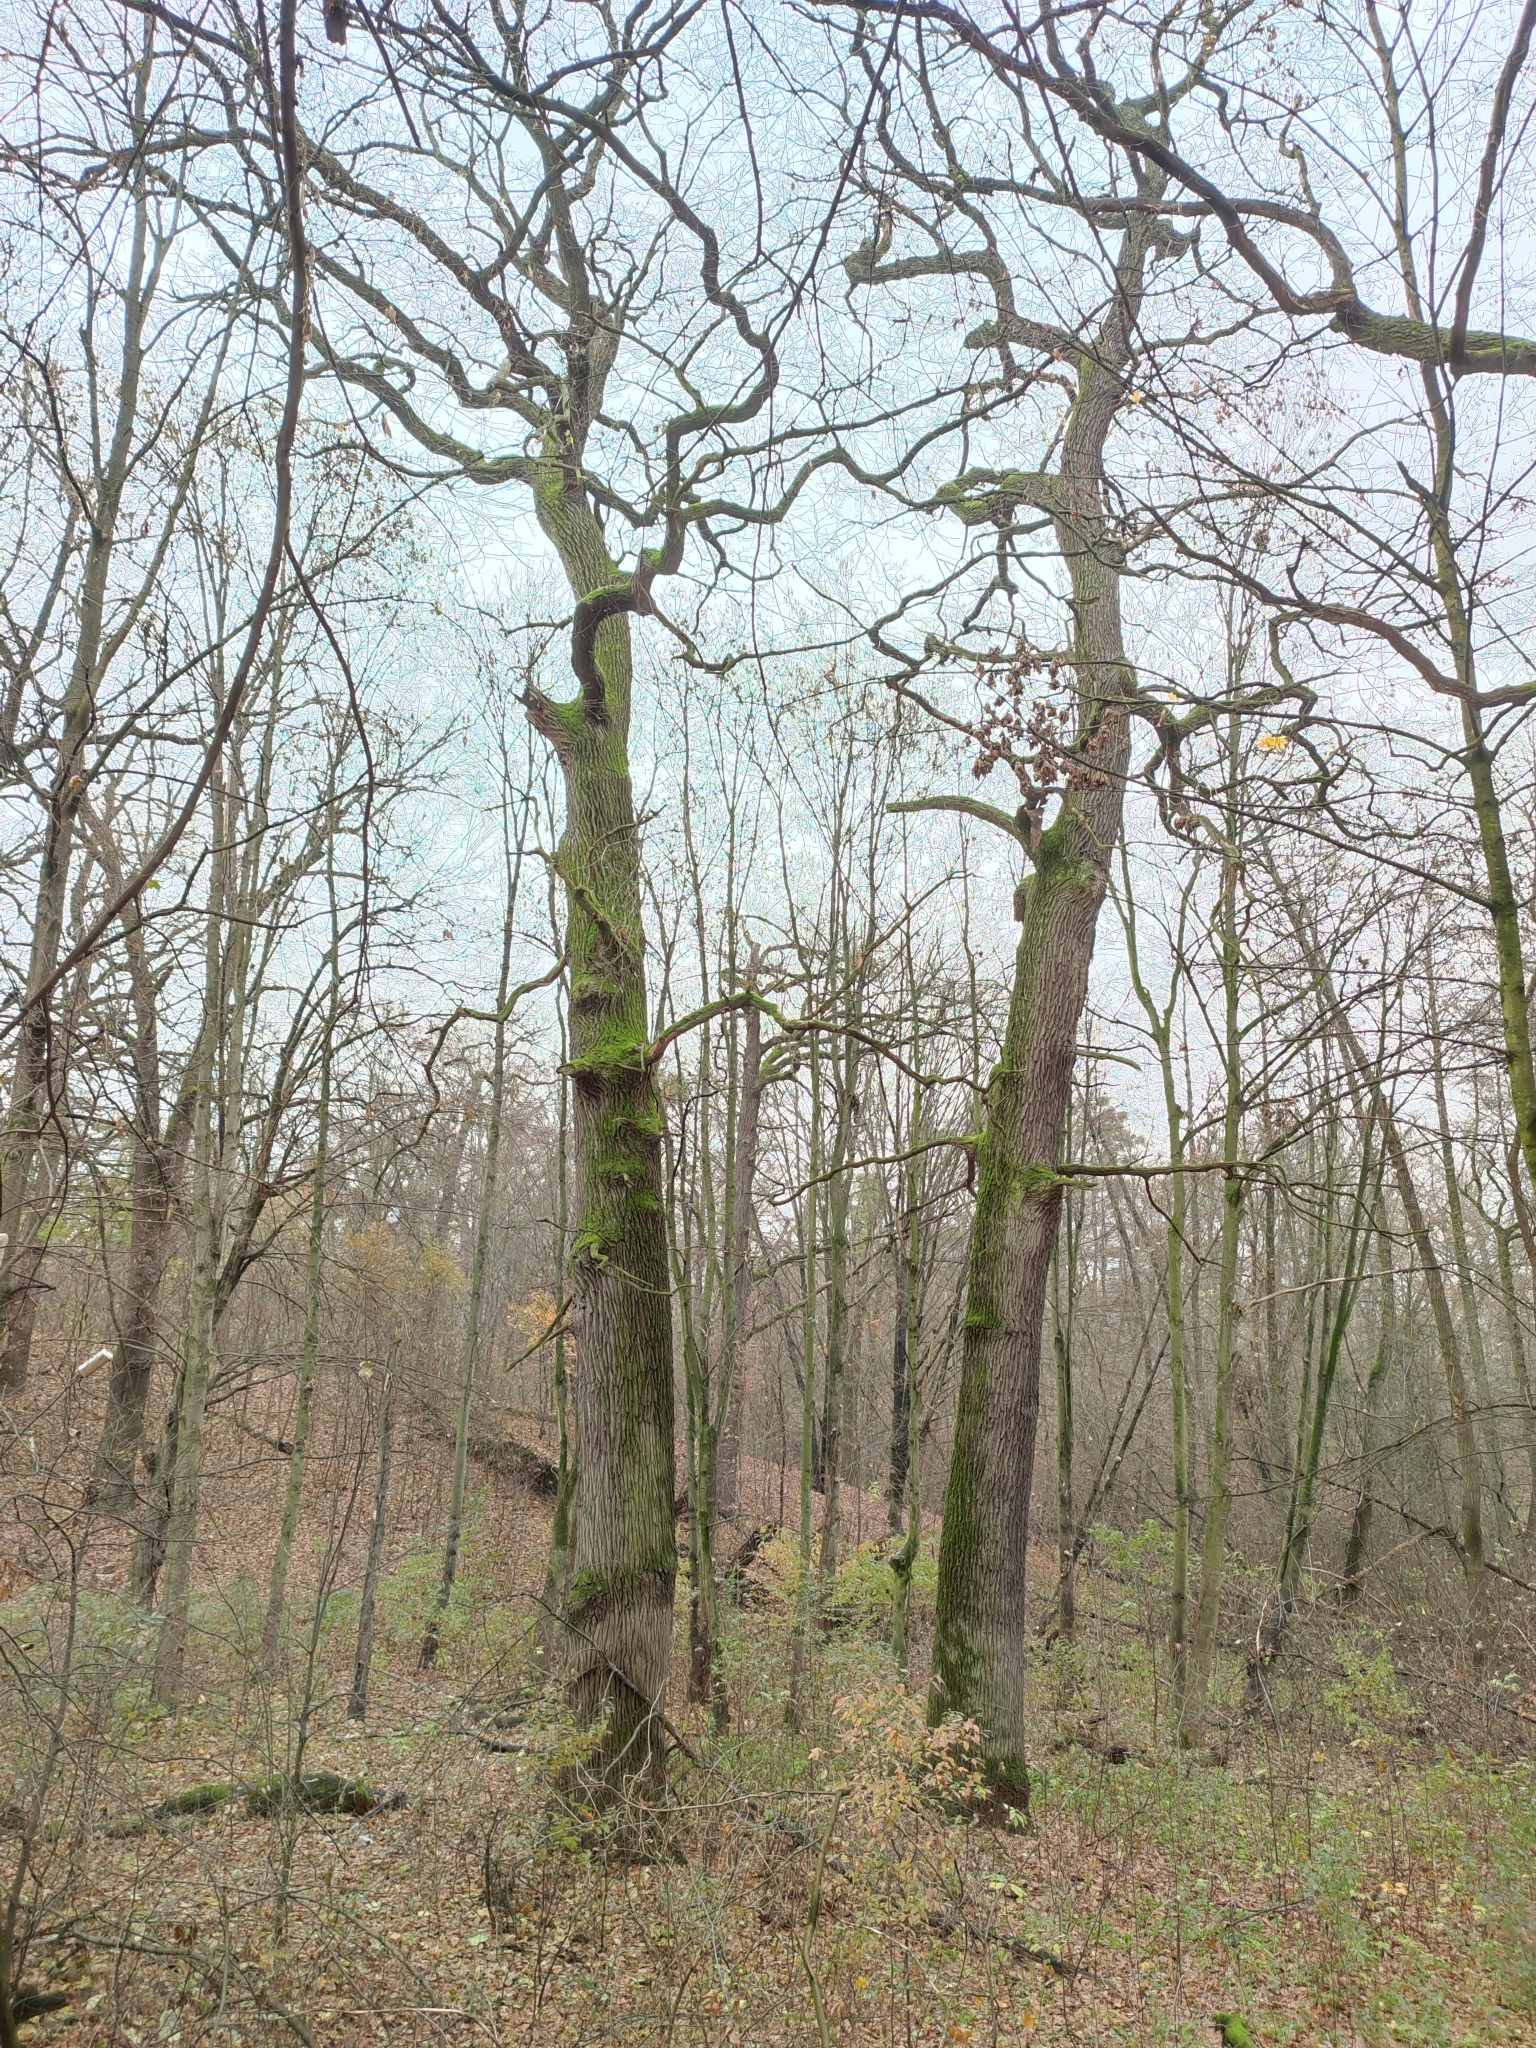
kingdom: Plantae
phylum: Tracheophyta
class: Magnoliopsida
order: Fagales
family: Fagaceae
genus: Quercus
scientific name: Quercus robur
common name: Pedunculate oak
